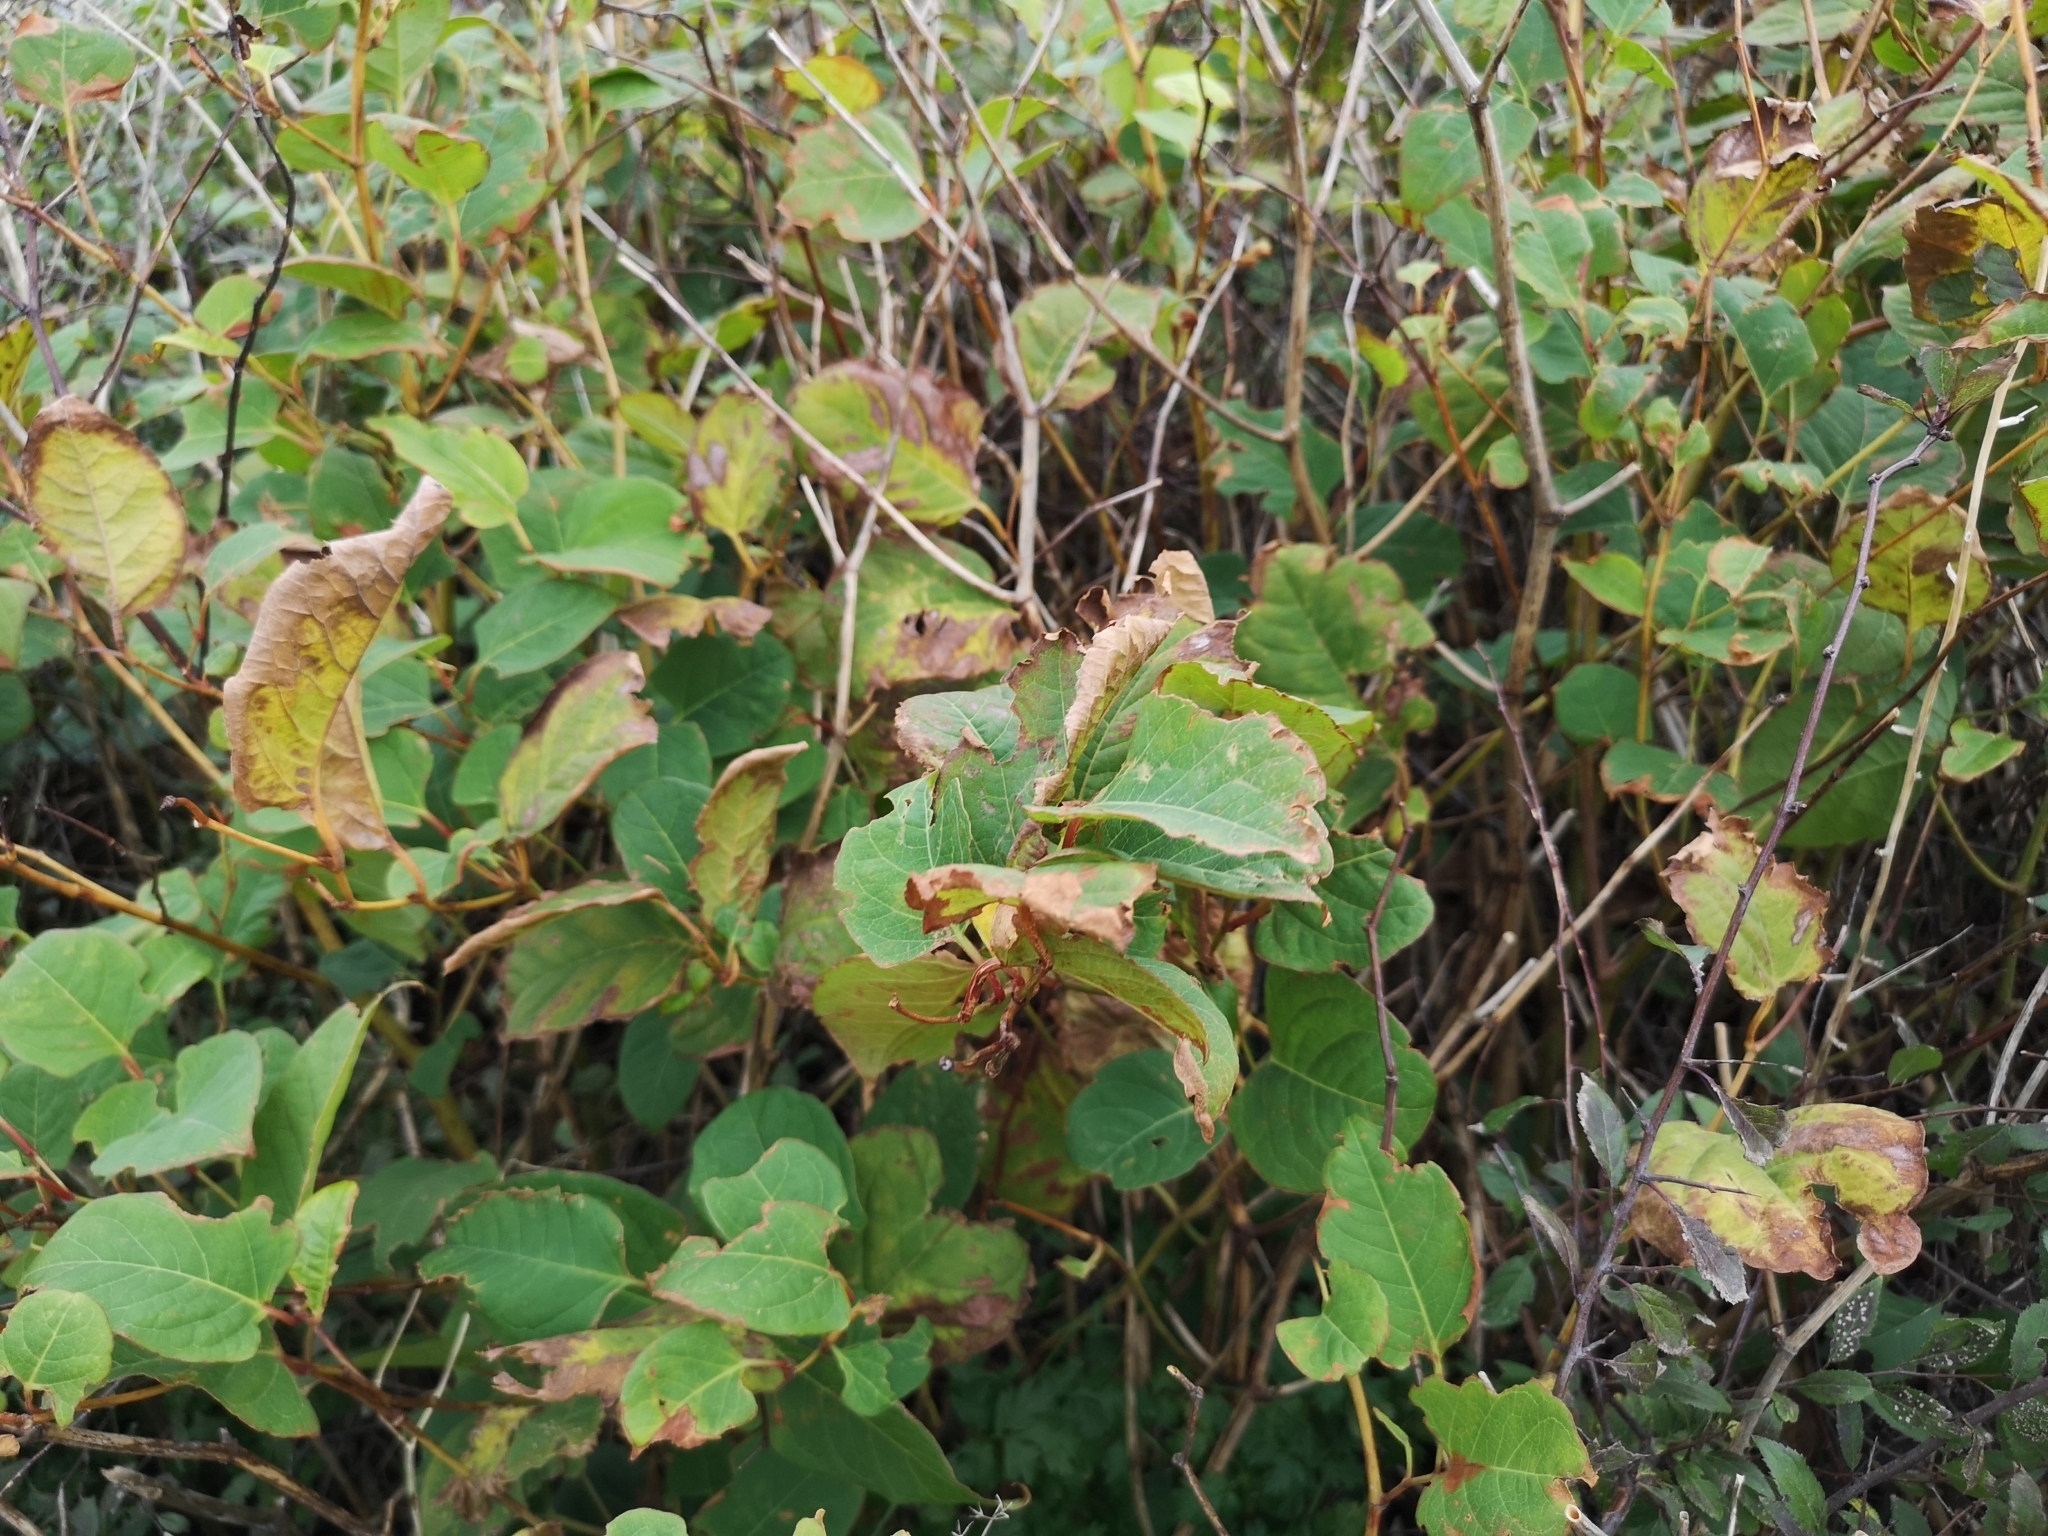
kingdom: Plantae
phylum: Tracheophyta
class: Magnoliopsida
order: Caryophyllales
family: Polygonaceae
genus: Reynoutria
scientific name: Reynoutria japonica
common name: Japanese knotweed
